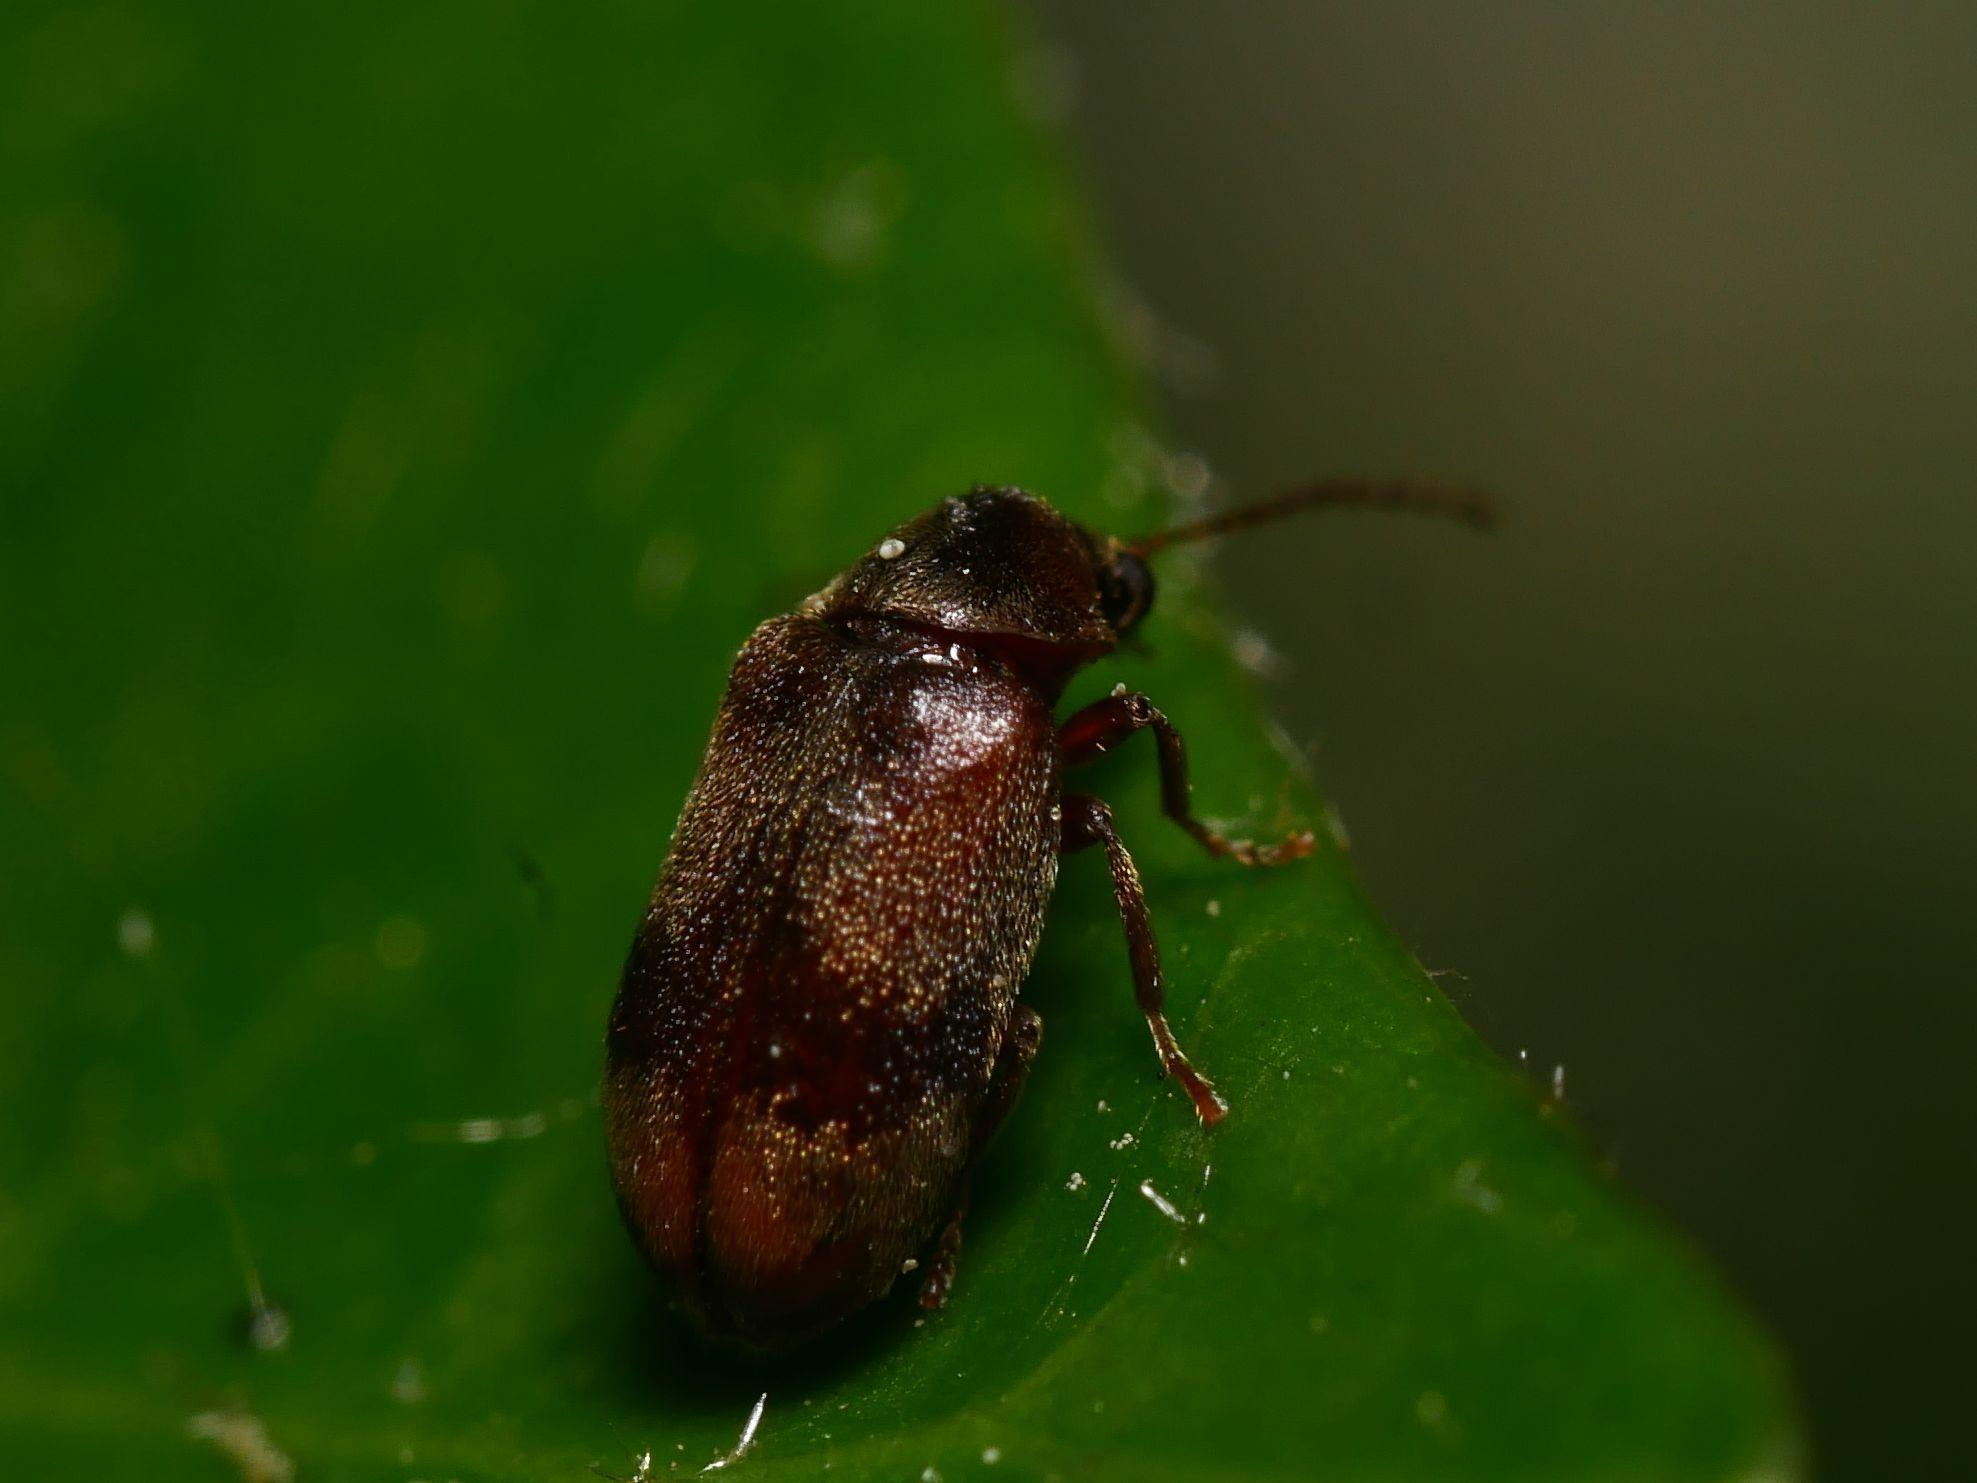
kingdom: Animalia
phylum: Arthropoda
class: Insecta
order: Coleoptera
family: Ptinidae
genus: Ochina
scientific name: Ochina ptinoides
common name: Ivy boring beetle
